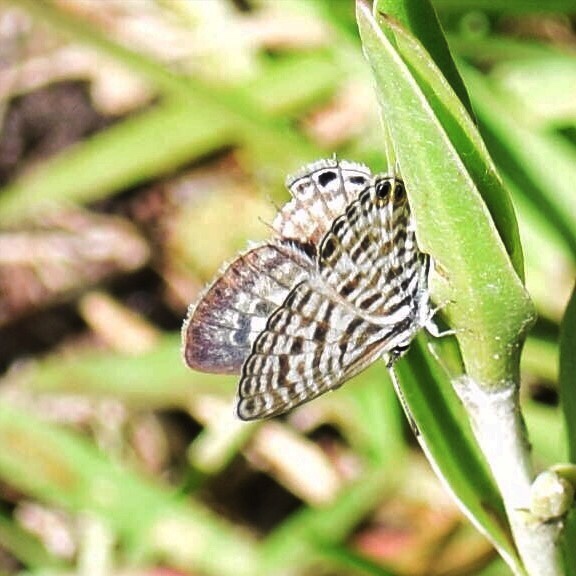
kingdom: Animalia
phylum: Arthropoda
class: Insecta
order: Lepidoptera
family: Lycaenidae
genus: Leptotes
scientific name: Leptotes
